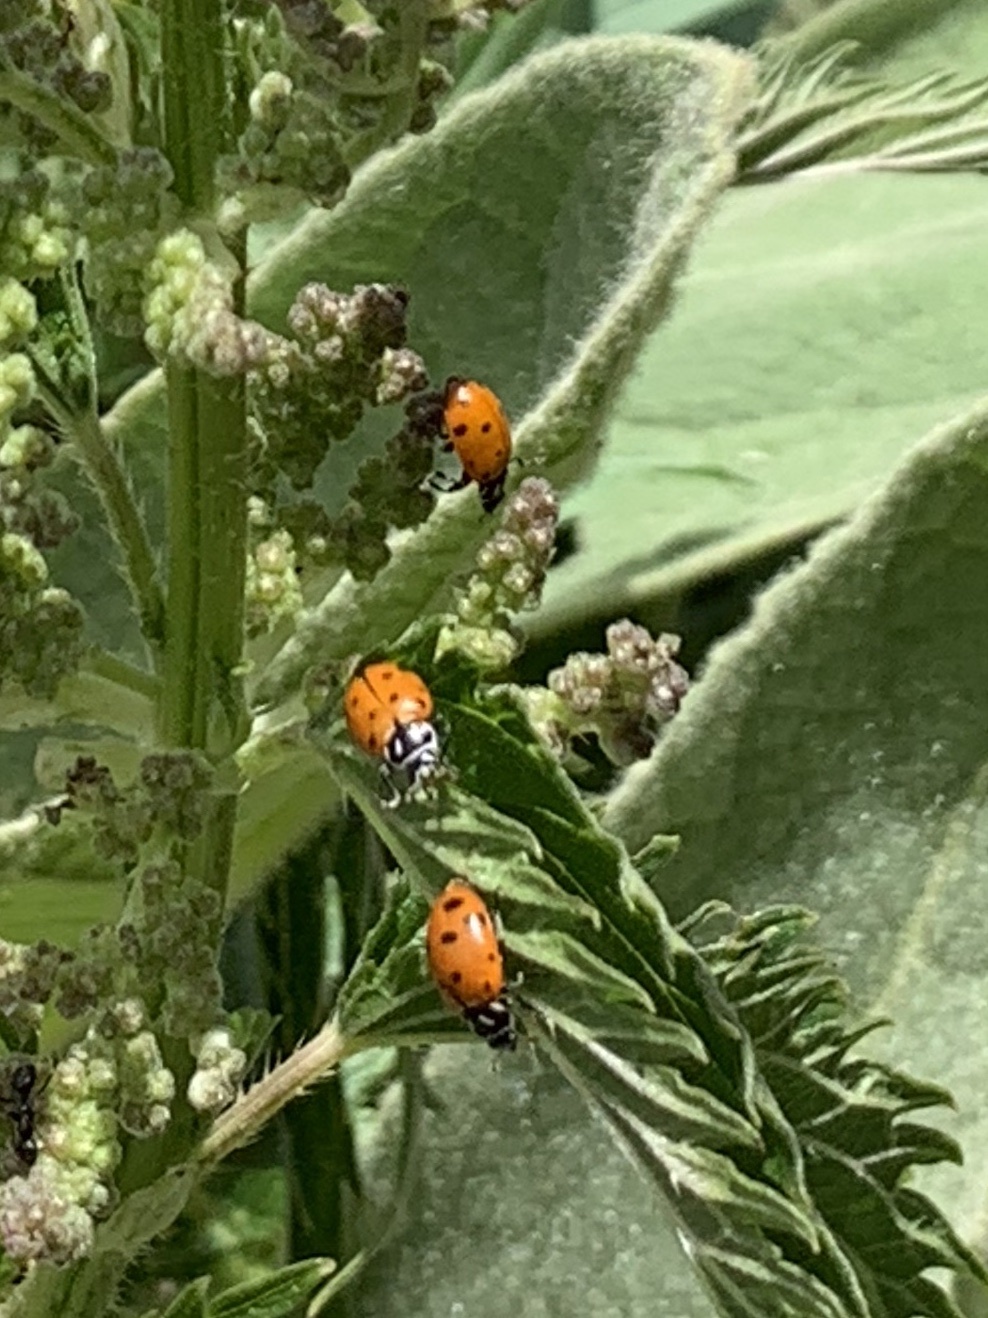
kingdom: Animalia
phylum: Arthropoda
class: Insecta
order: Coleoptera
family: Coccinellidae
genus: Hippodamia
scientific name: Hippodamia convergens
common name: Convergent lady beetle
